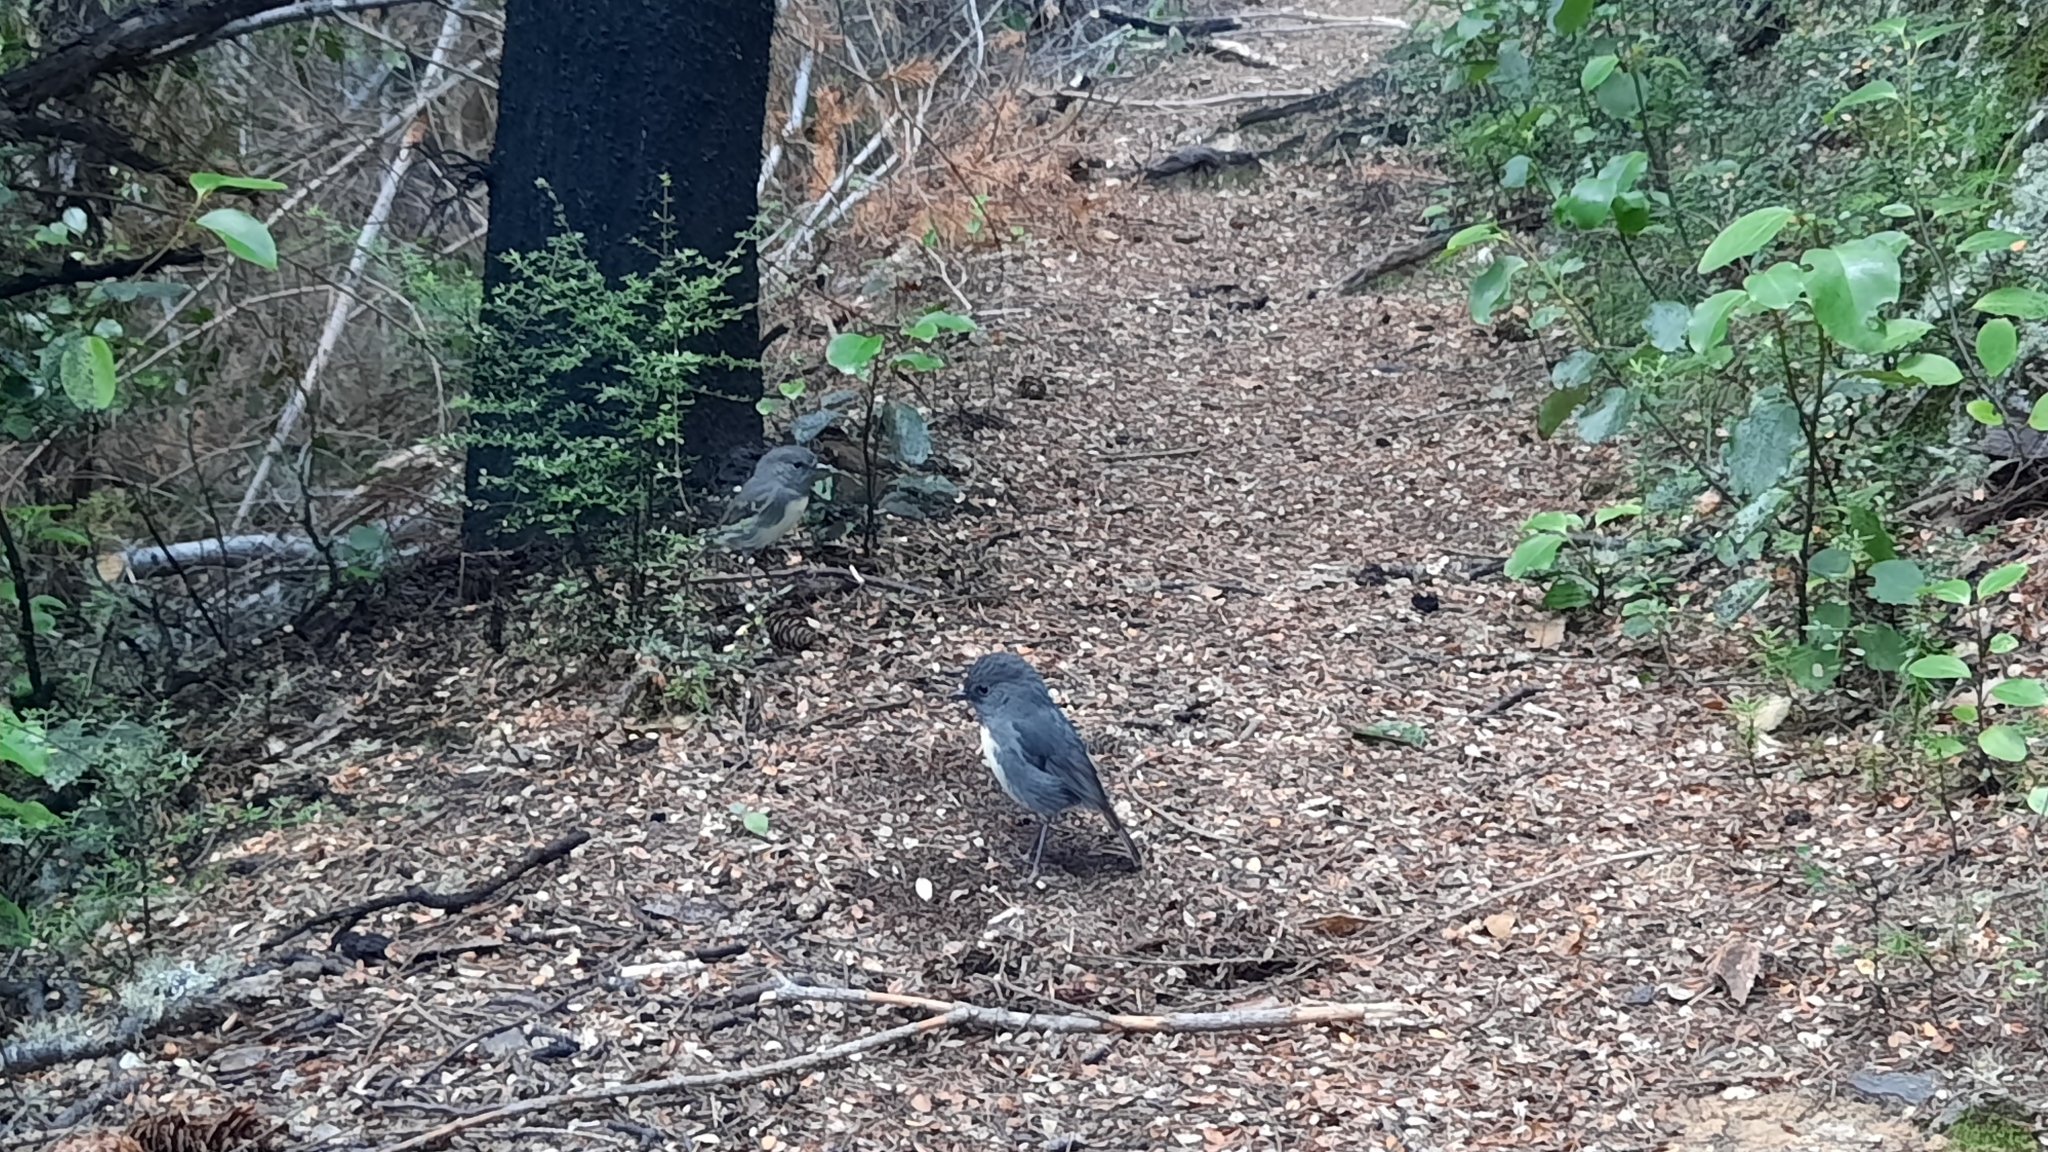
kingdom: Animalia
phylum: Chordata
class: Aves
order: Passeriformes
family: Petroicidae
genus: Petroica
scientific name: Petroica australis
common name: New zealand robin
